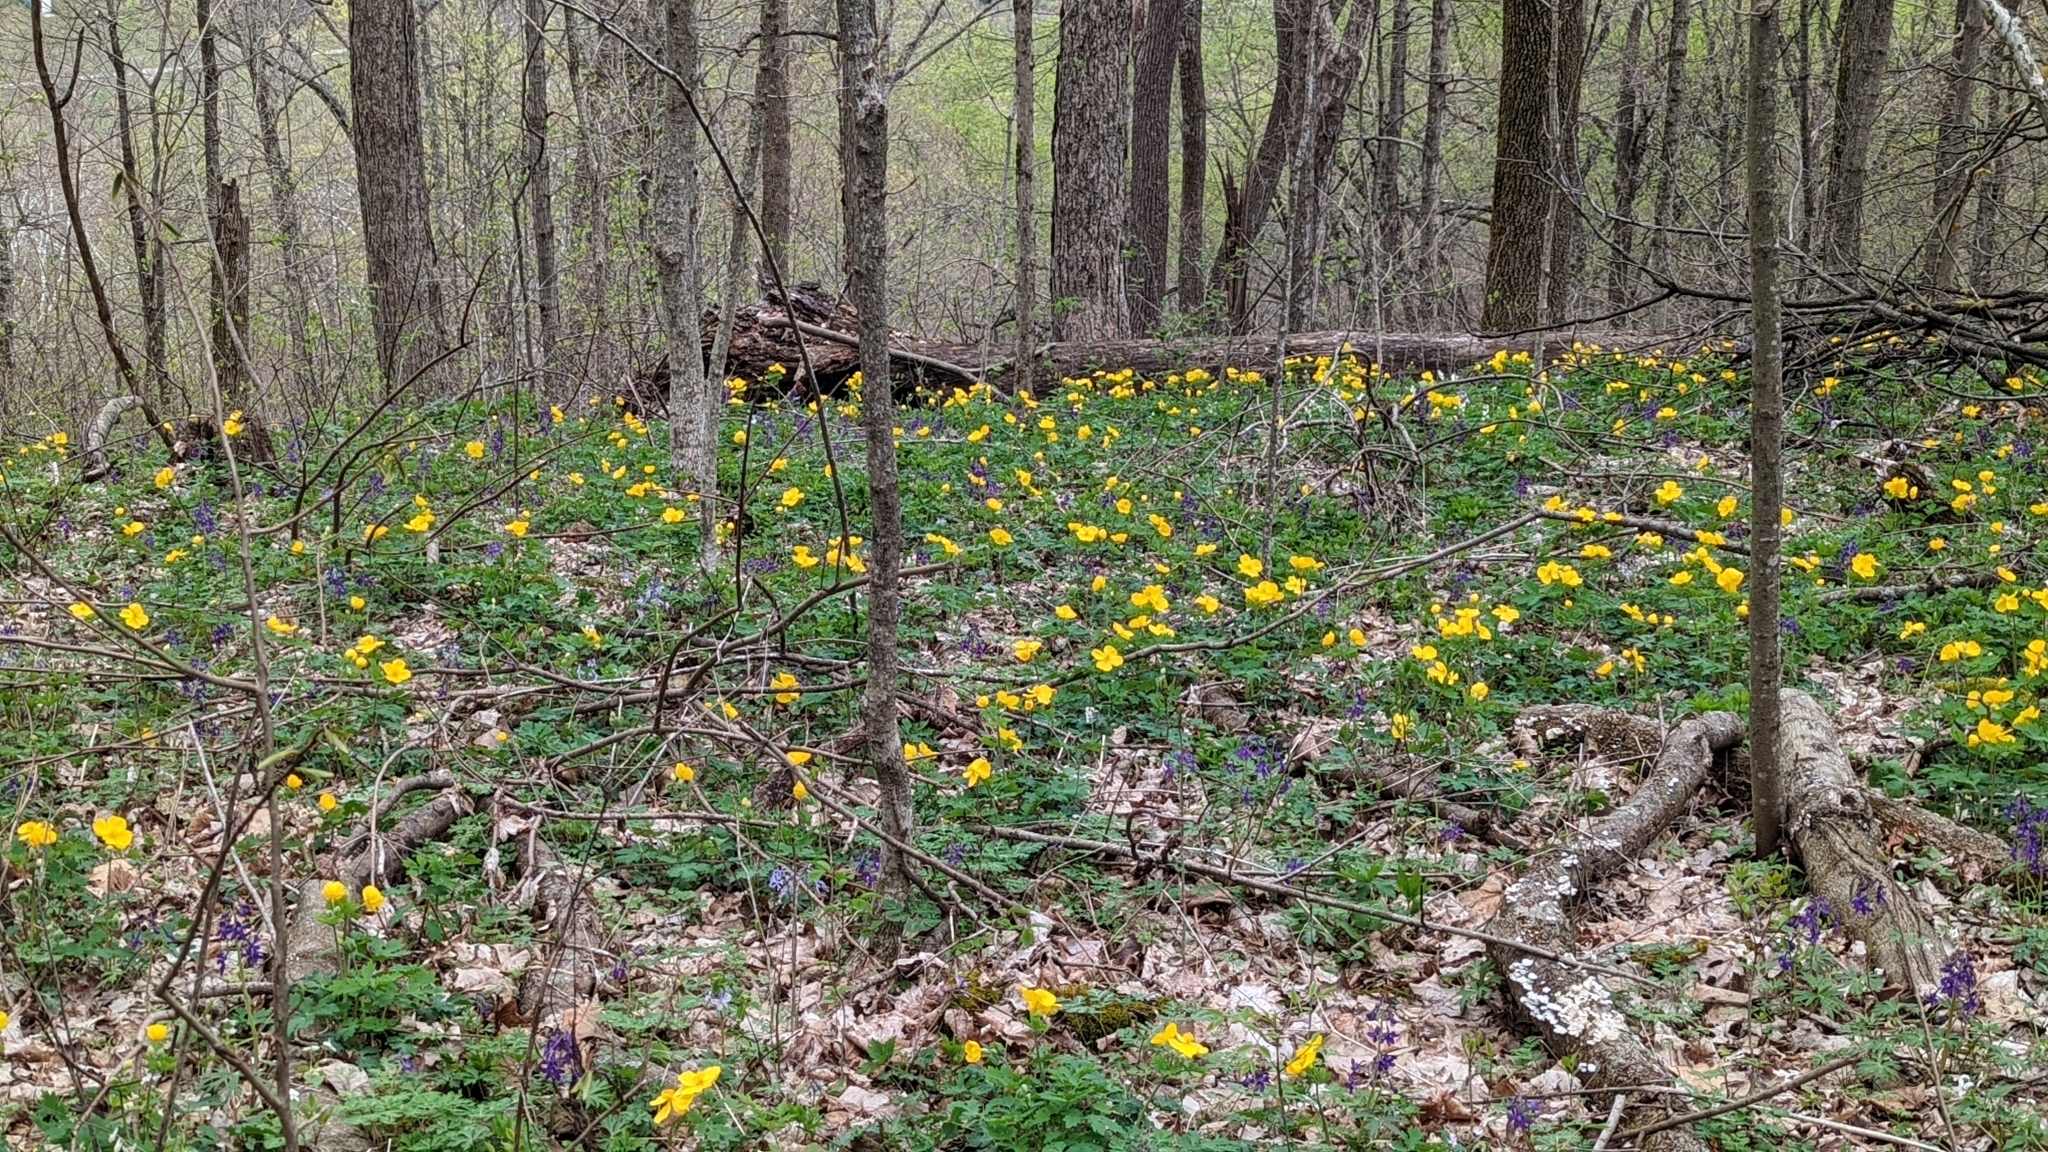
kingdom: Plantae
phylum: Tracheophyta
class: Magnoliopsida
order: Ranunculales
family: Papaveraceae
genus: Stylophorum
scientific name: Stylophorum diphyllum
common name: Celandine poppy
